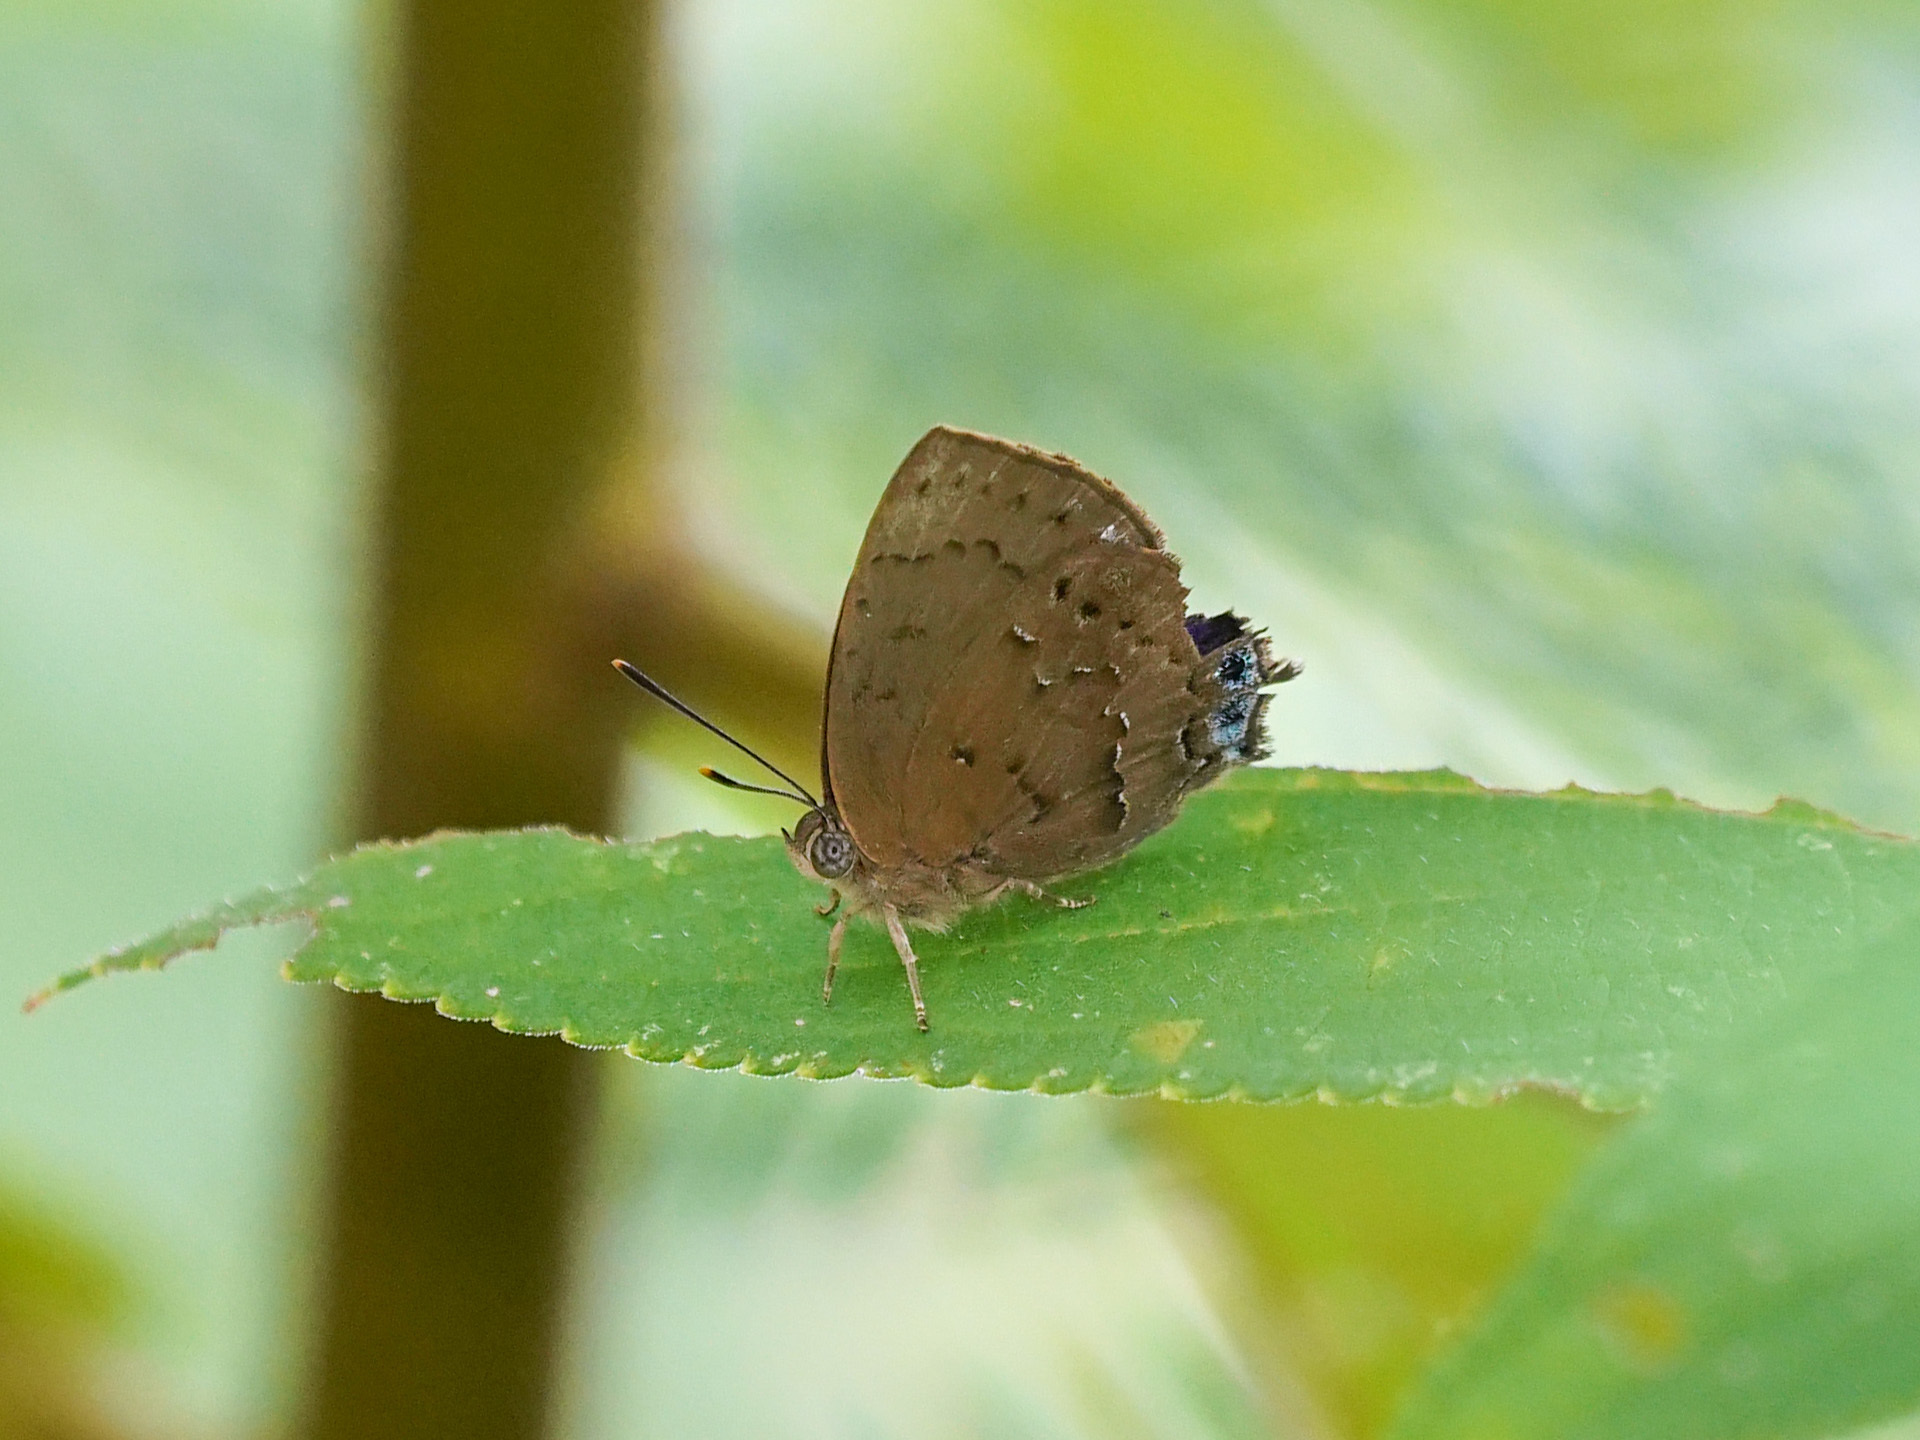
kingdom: Animalia
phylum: Arthropoda
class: Insecta
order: Lepidoptera
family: Lycaenidae
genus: Surendra
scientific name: Surendra vivarna
